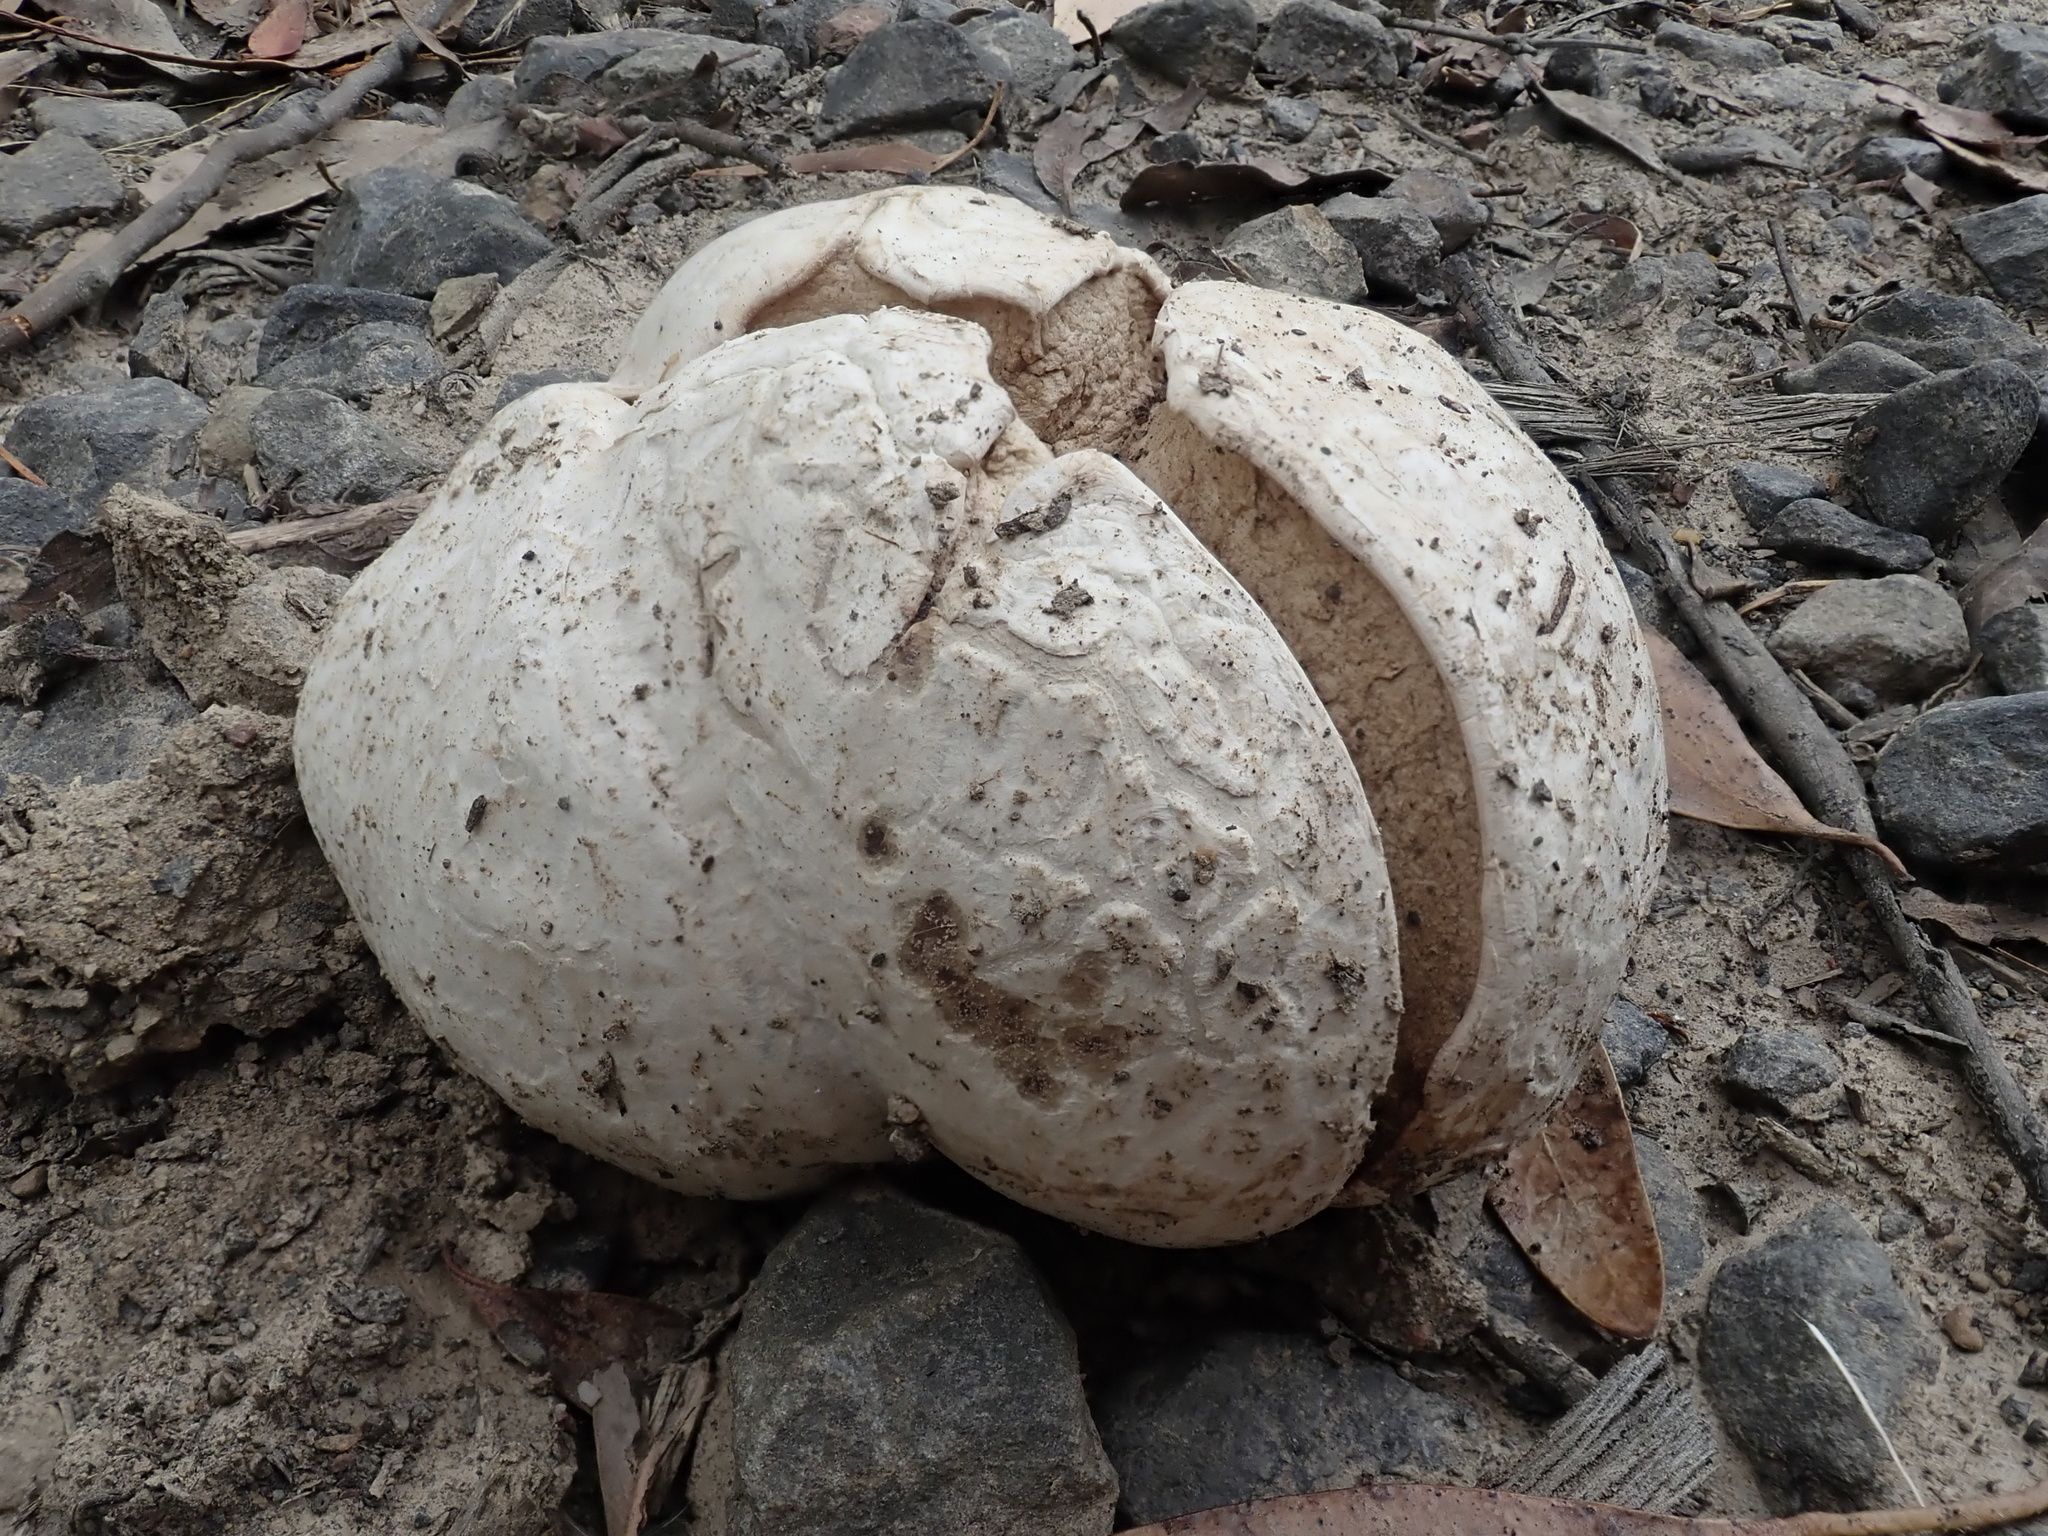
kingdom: Fungi
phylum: Basidiomycota
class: Agaricomycetes
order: Agaricales
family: Lycoperdaceae
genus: Calvatia
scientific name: Calvatia lilacina
